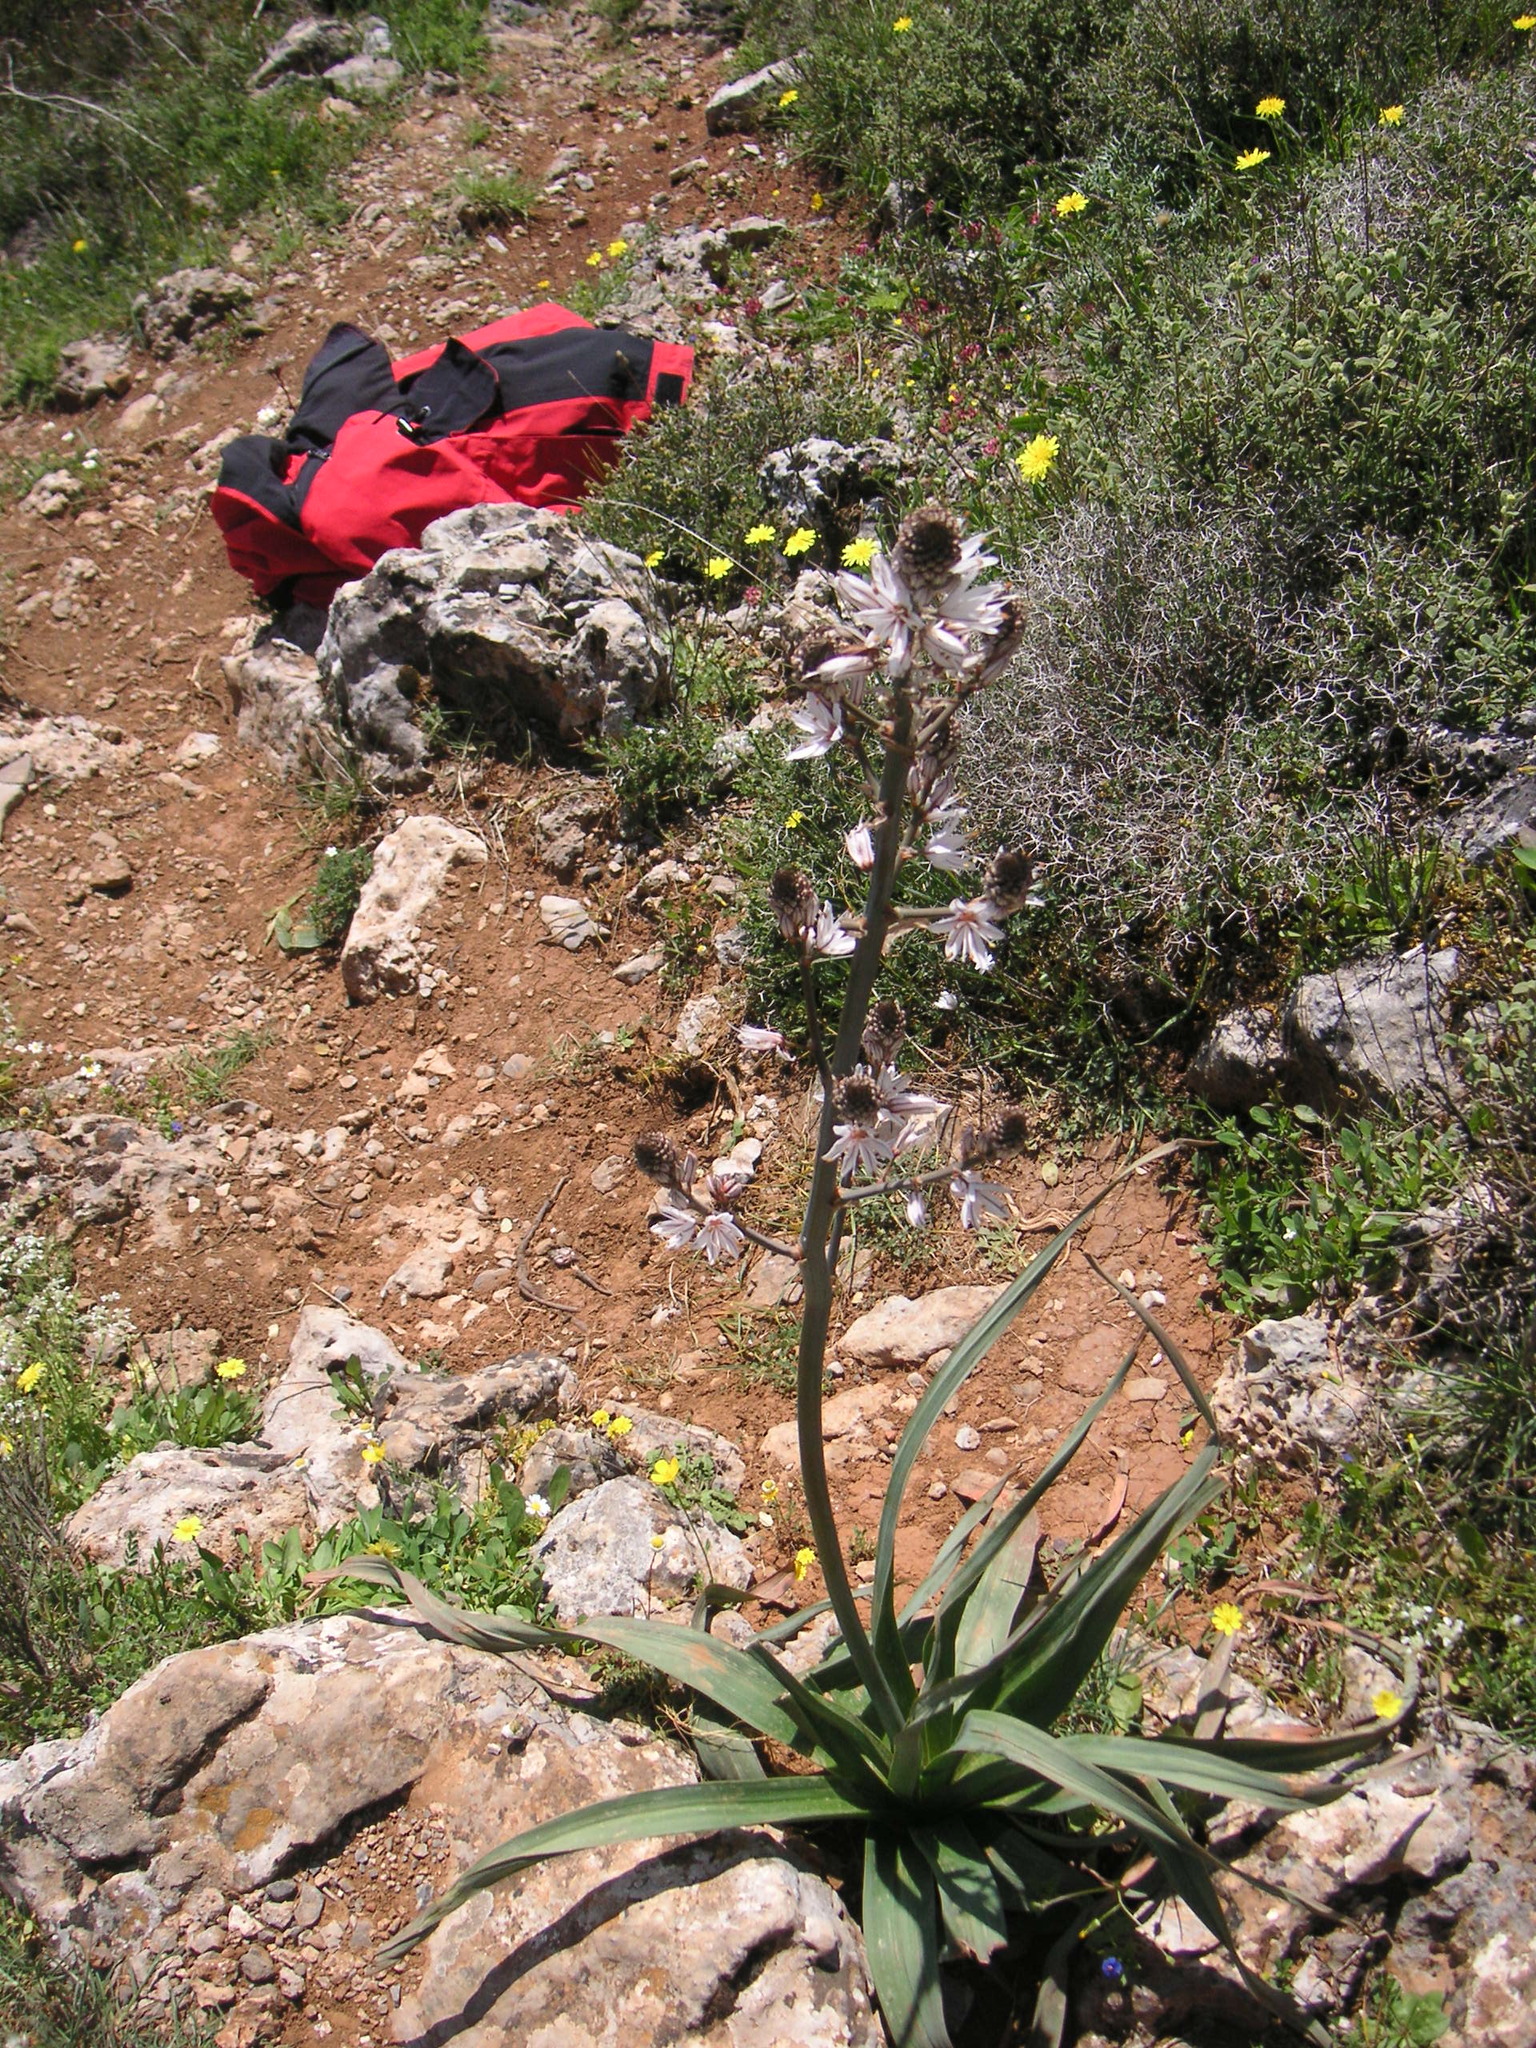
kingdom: Plantae
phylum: Tracheophyta
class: Liliopsida
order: Asparagales
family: Asphodelaceae
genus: Asphodelus
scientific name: Asphodelus ramosus
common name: Silverrod
